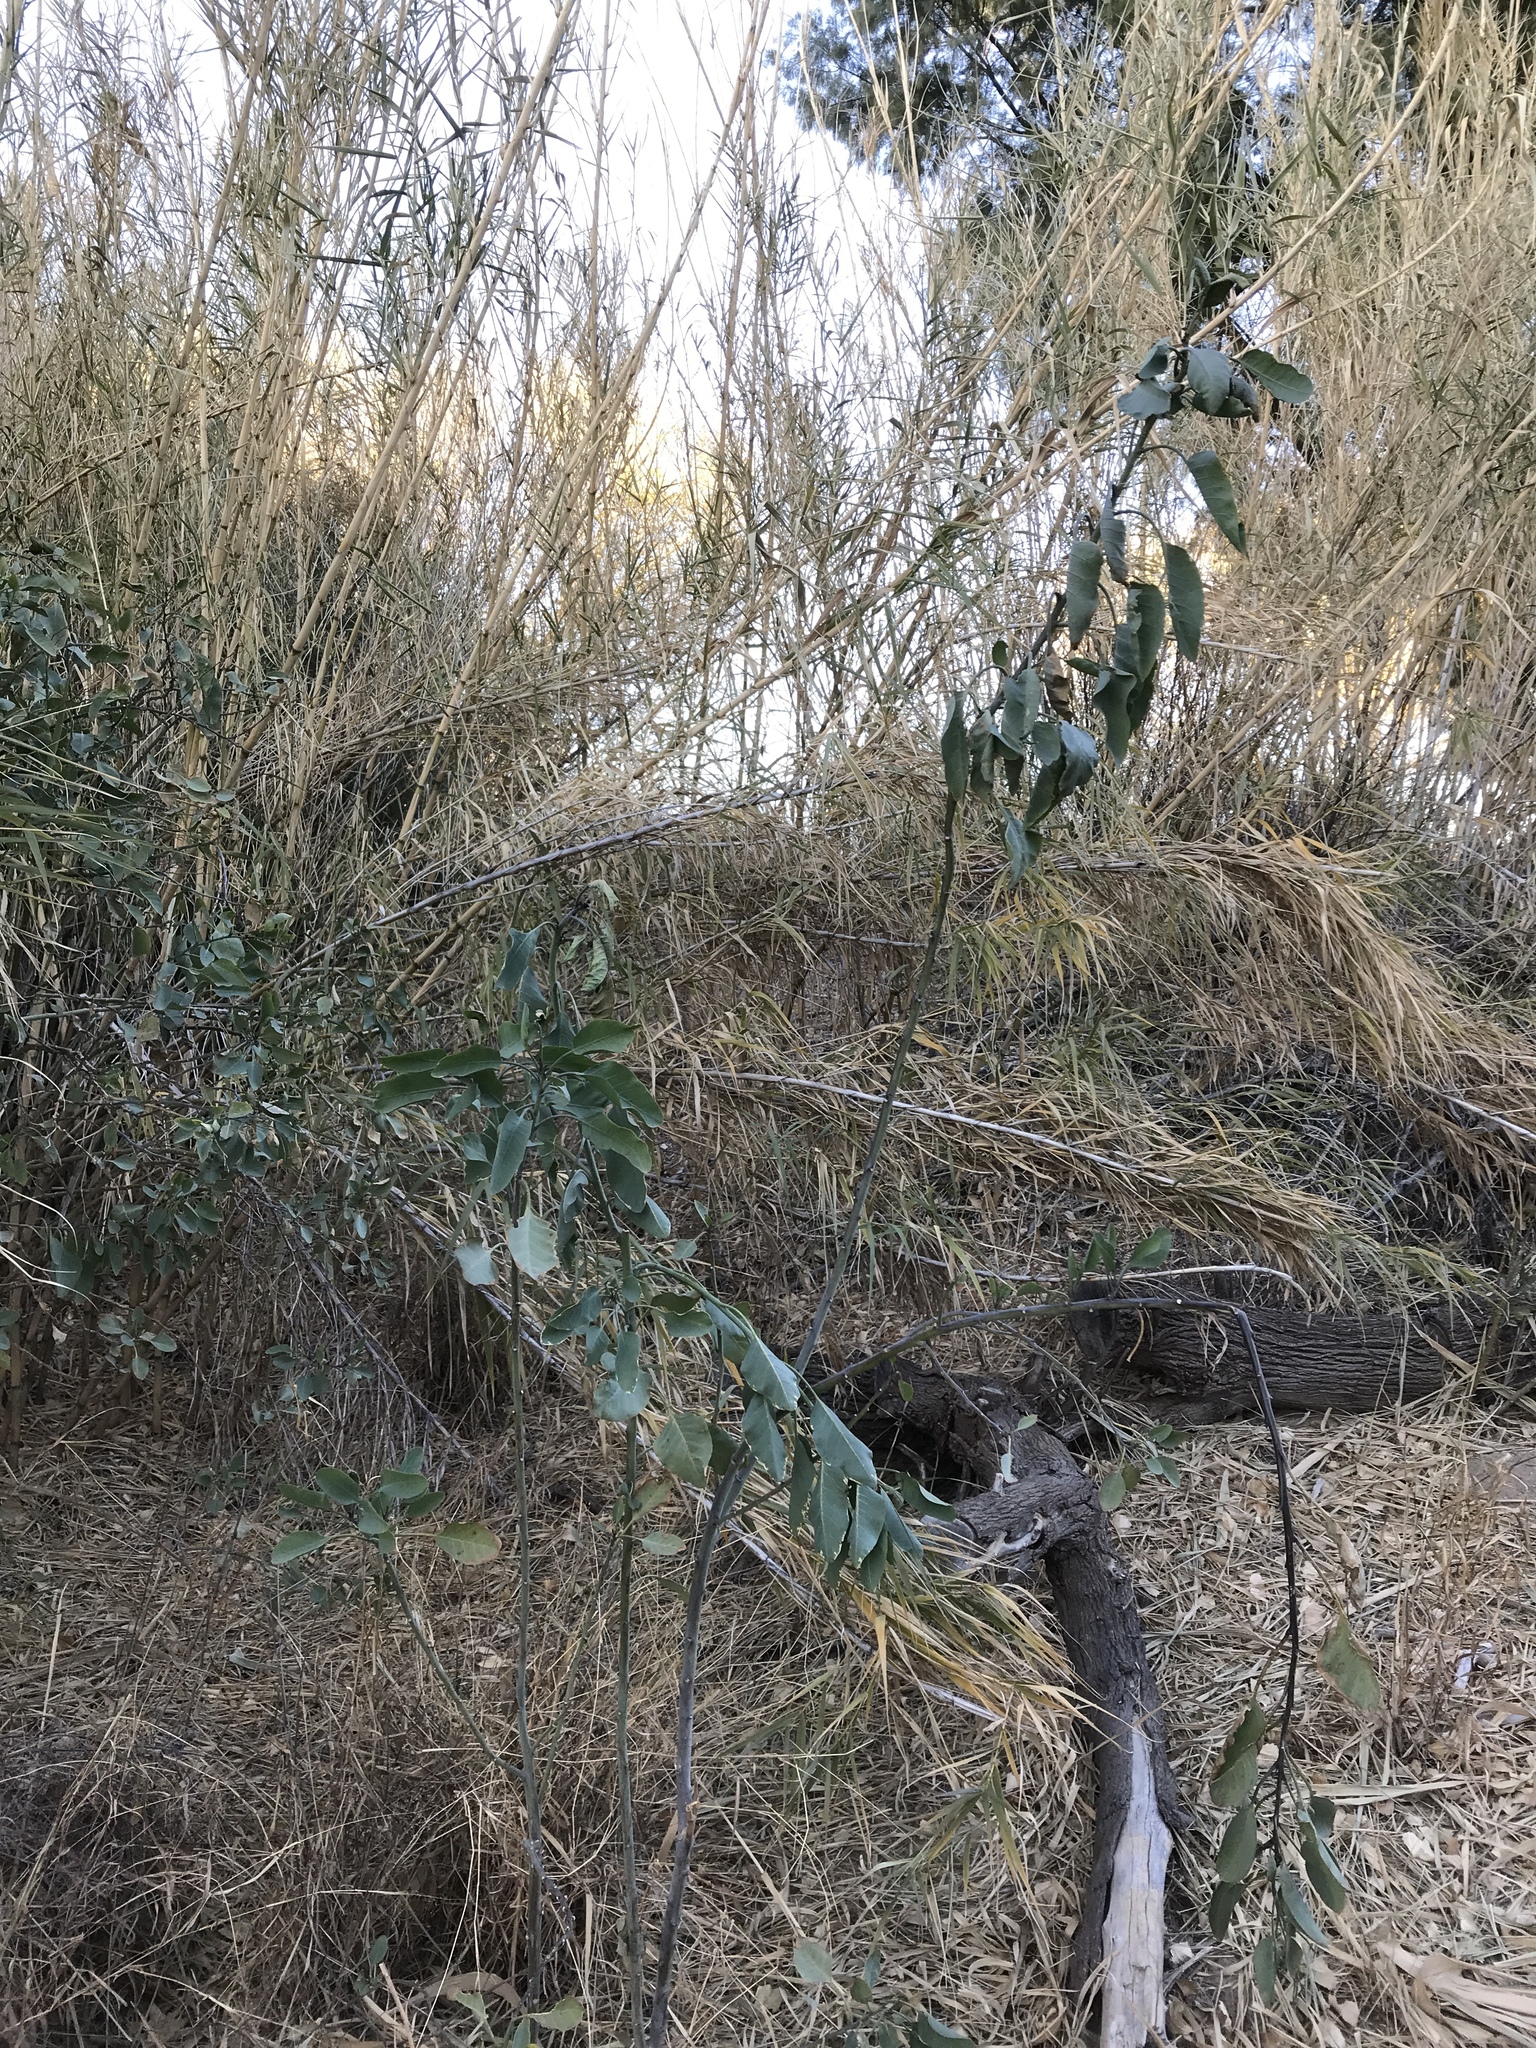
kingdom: Plantae
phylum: Tracheophyta
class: Magnoliopsida
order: Solanales
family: Solanaceae
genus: Nicotiana
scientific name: Nicotiana glauca
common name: Tree tobacco
